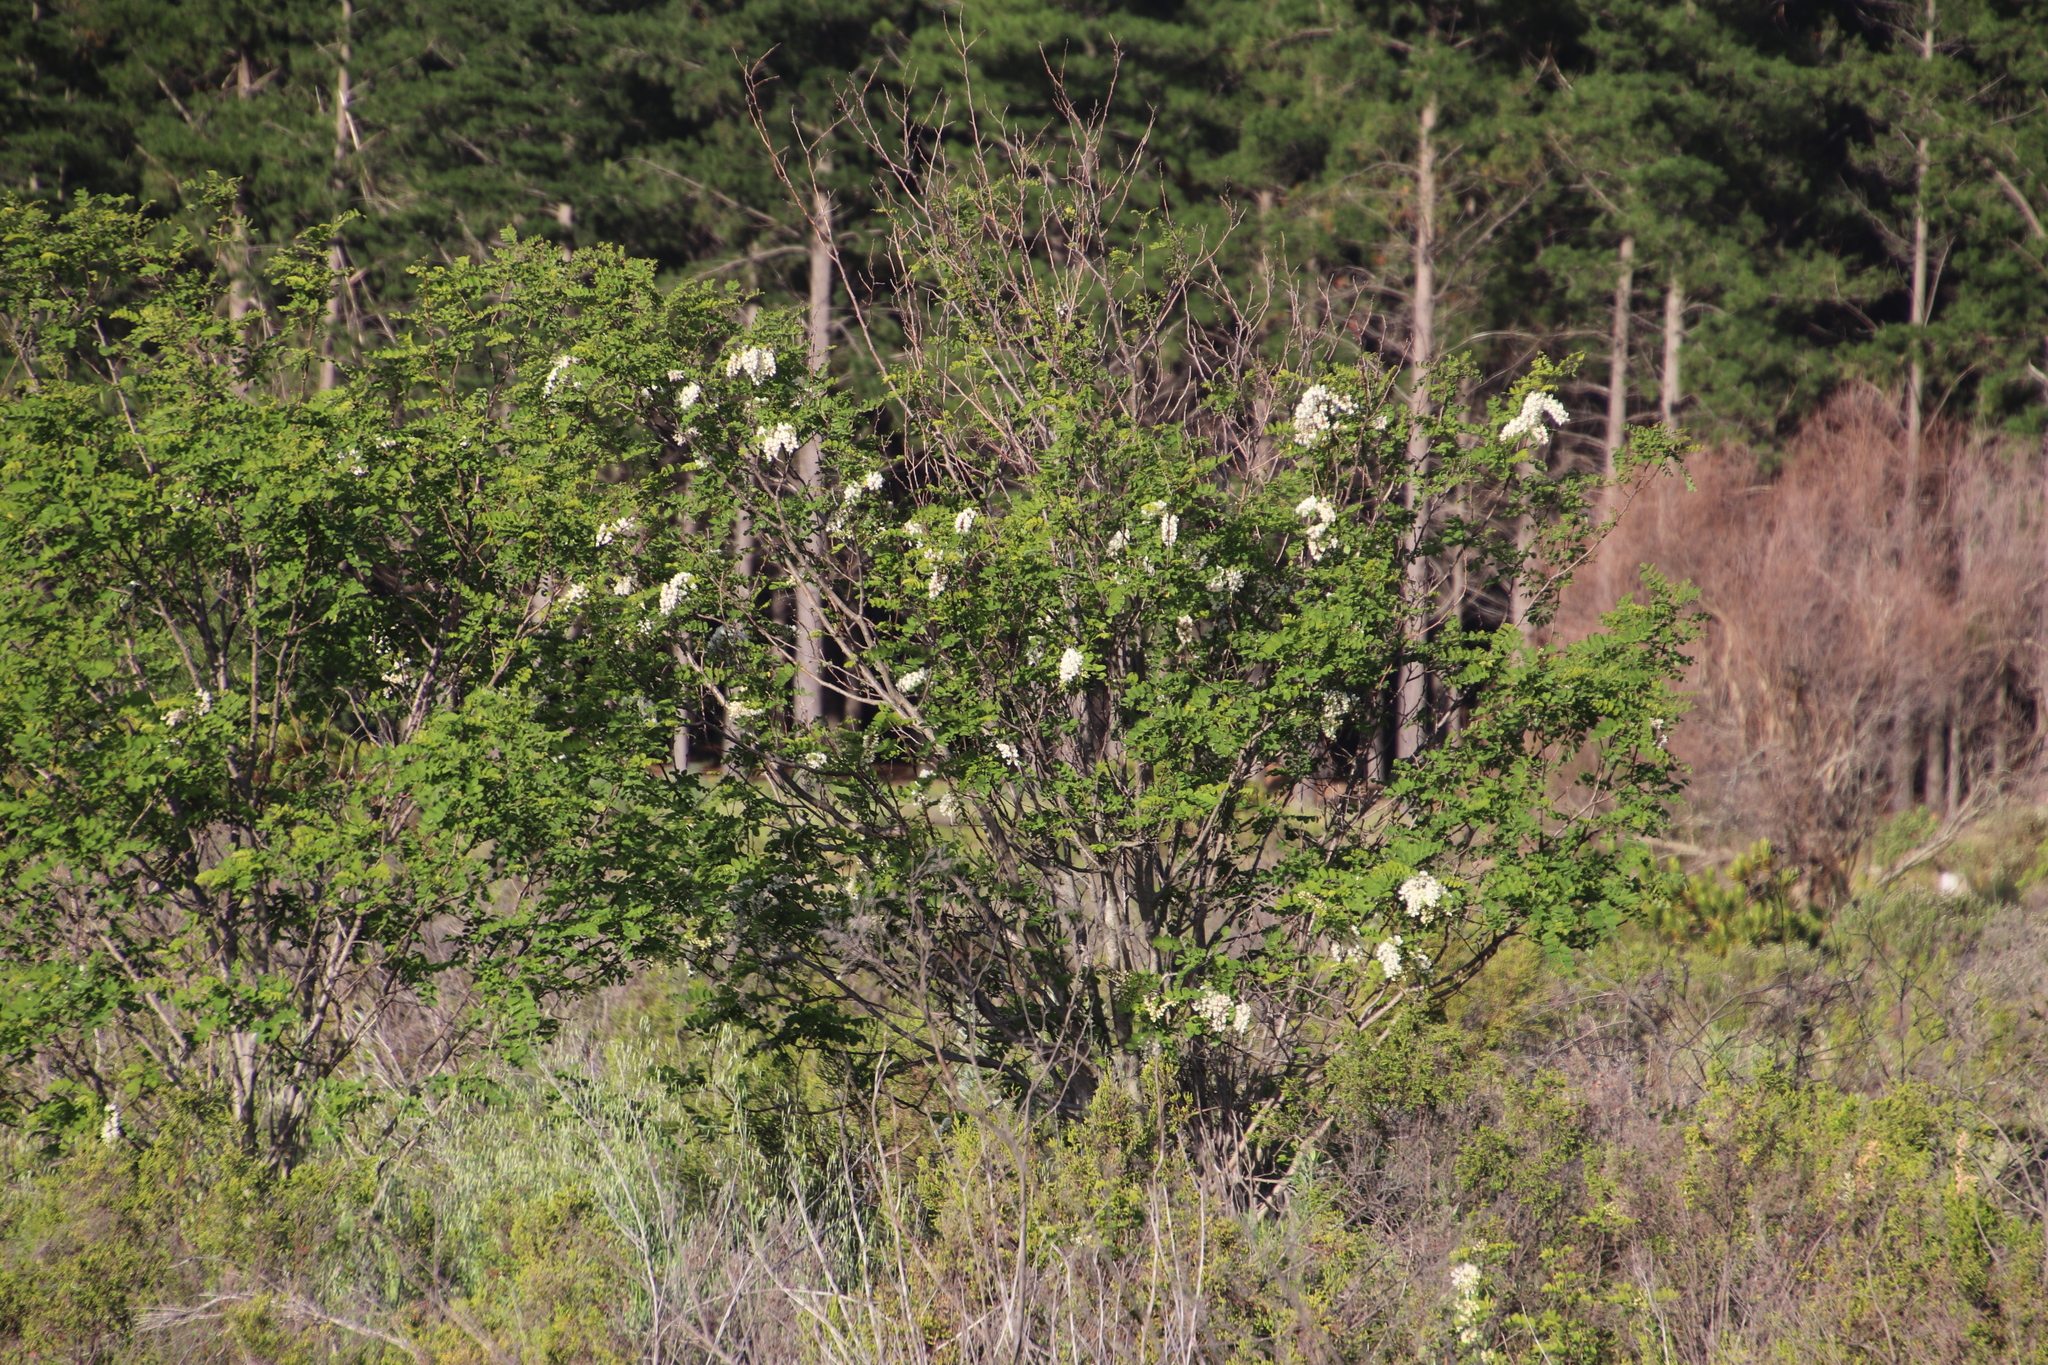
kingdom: Plantae
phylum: Tracheophyta
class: Magnoliopsida
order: Fabales
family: Fabaceae
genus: Robinia
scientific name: Robinia pseudoacacia
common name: Black locust
